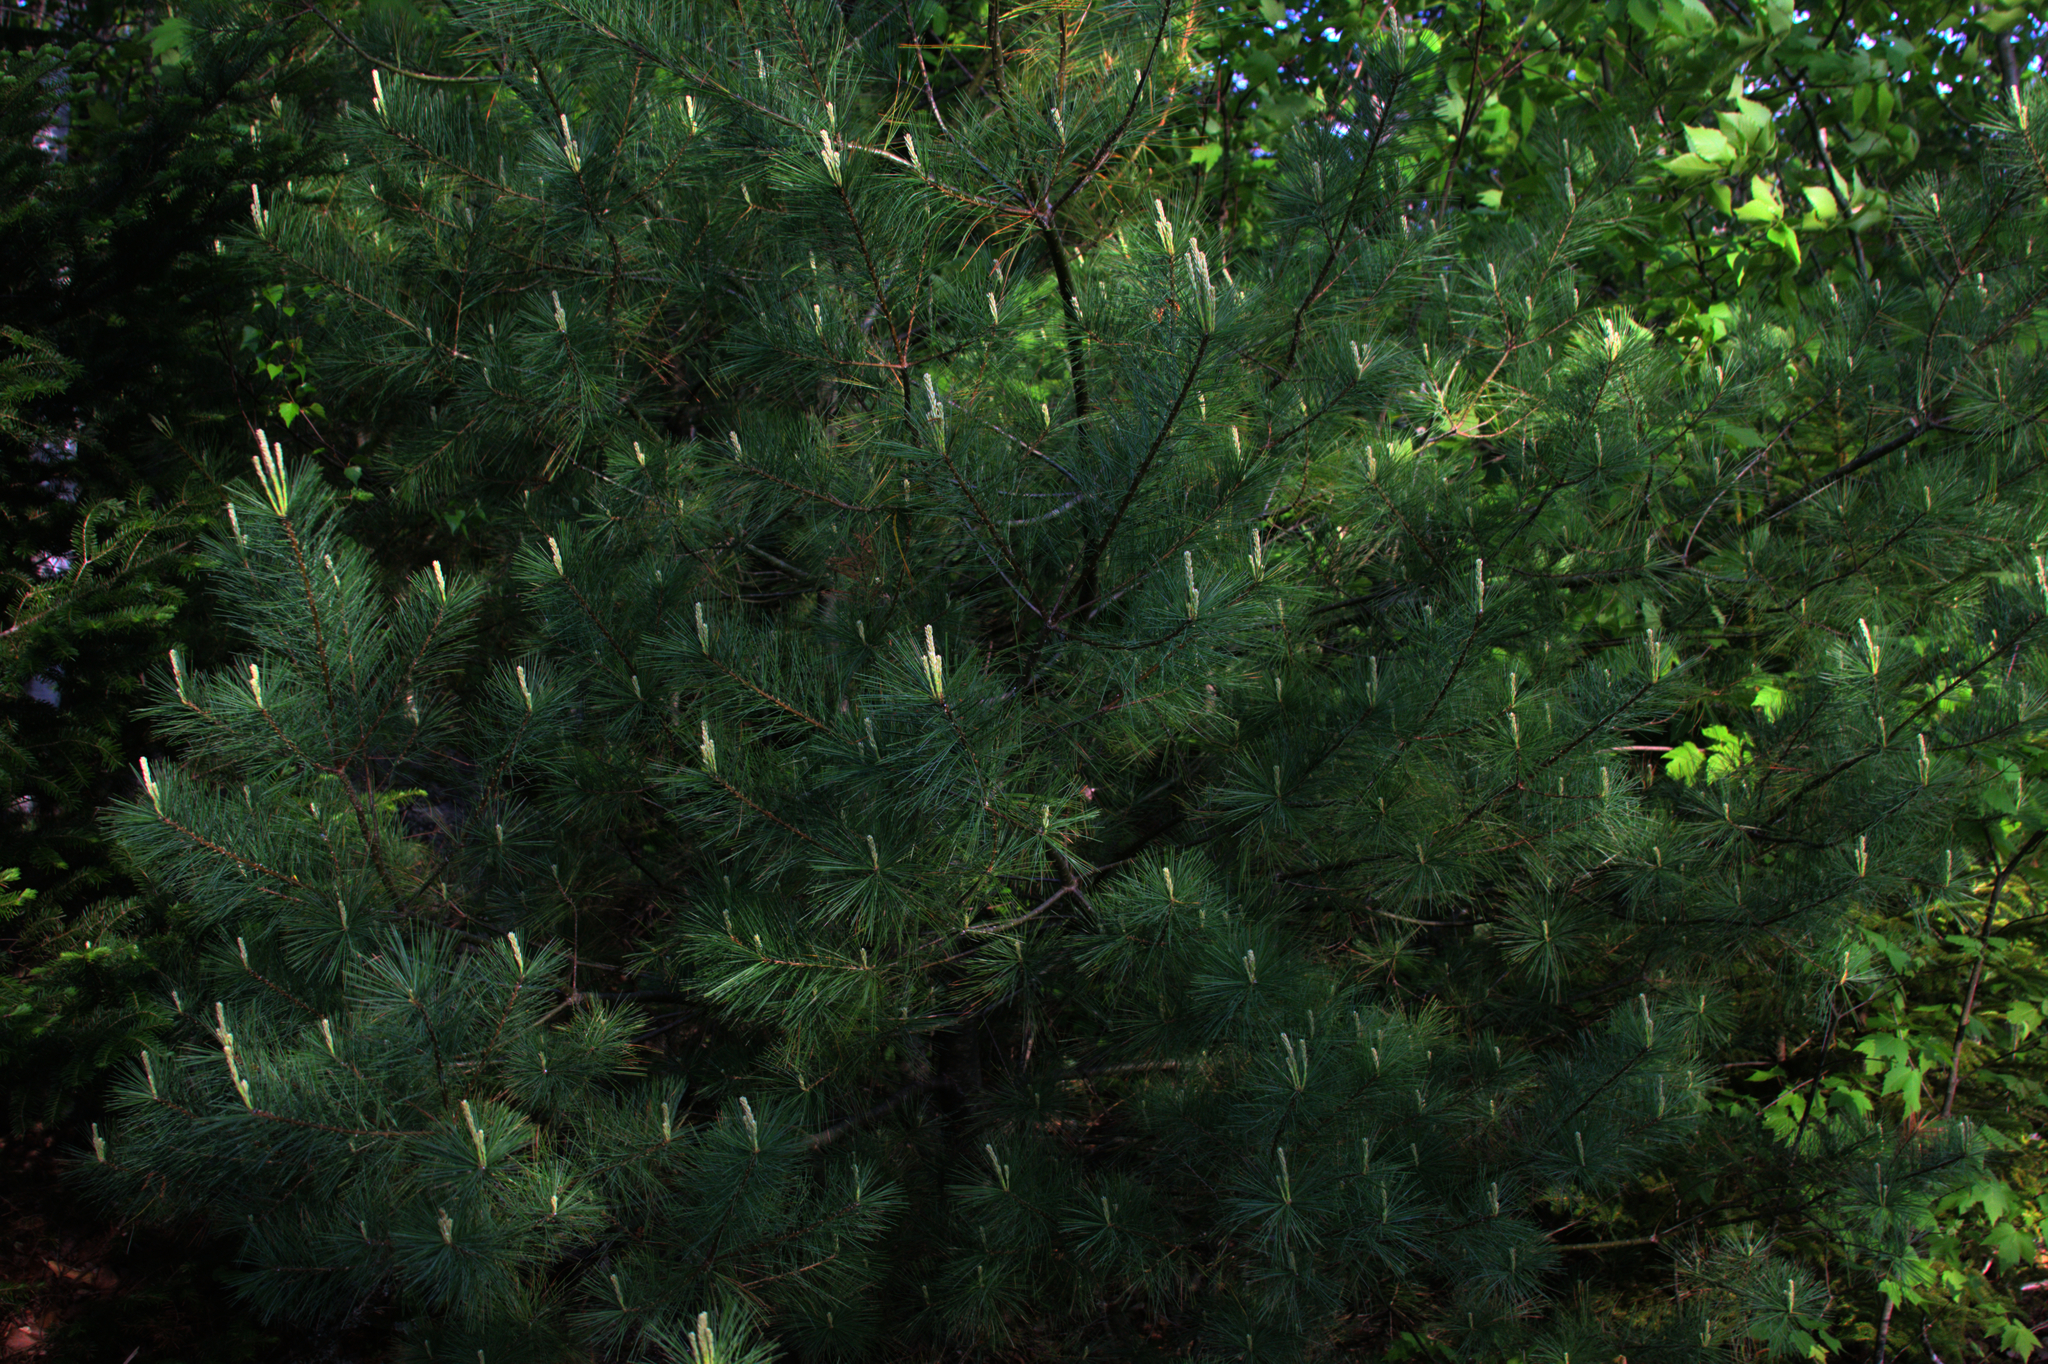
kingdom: Plantae
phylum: Tracheophyta
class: Pinopsida
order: Pinales
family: Pinaceae
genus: Pinus
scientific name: Pinus strobus
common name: Weymouth pine
